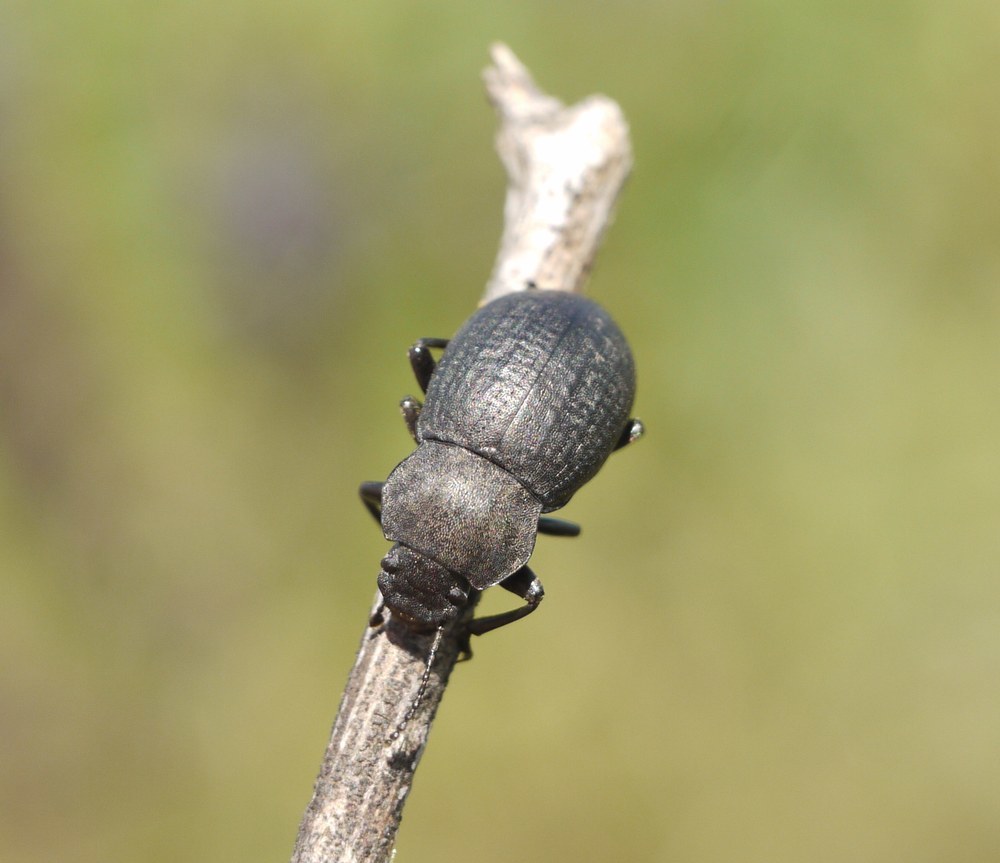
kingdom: Animalia
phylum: Arthropoda
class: Insecta
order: Coleoptera
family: Tenebrionidae
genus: Euboeus
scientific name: Euboeus
